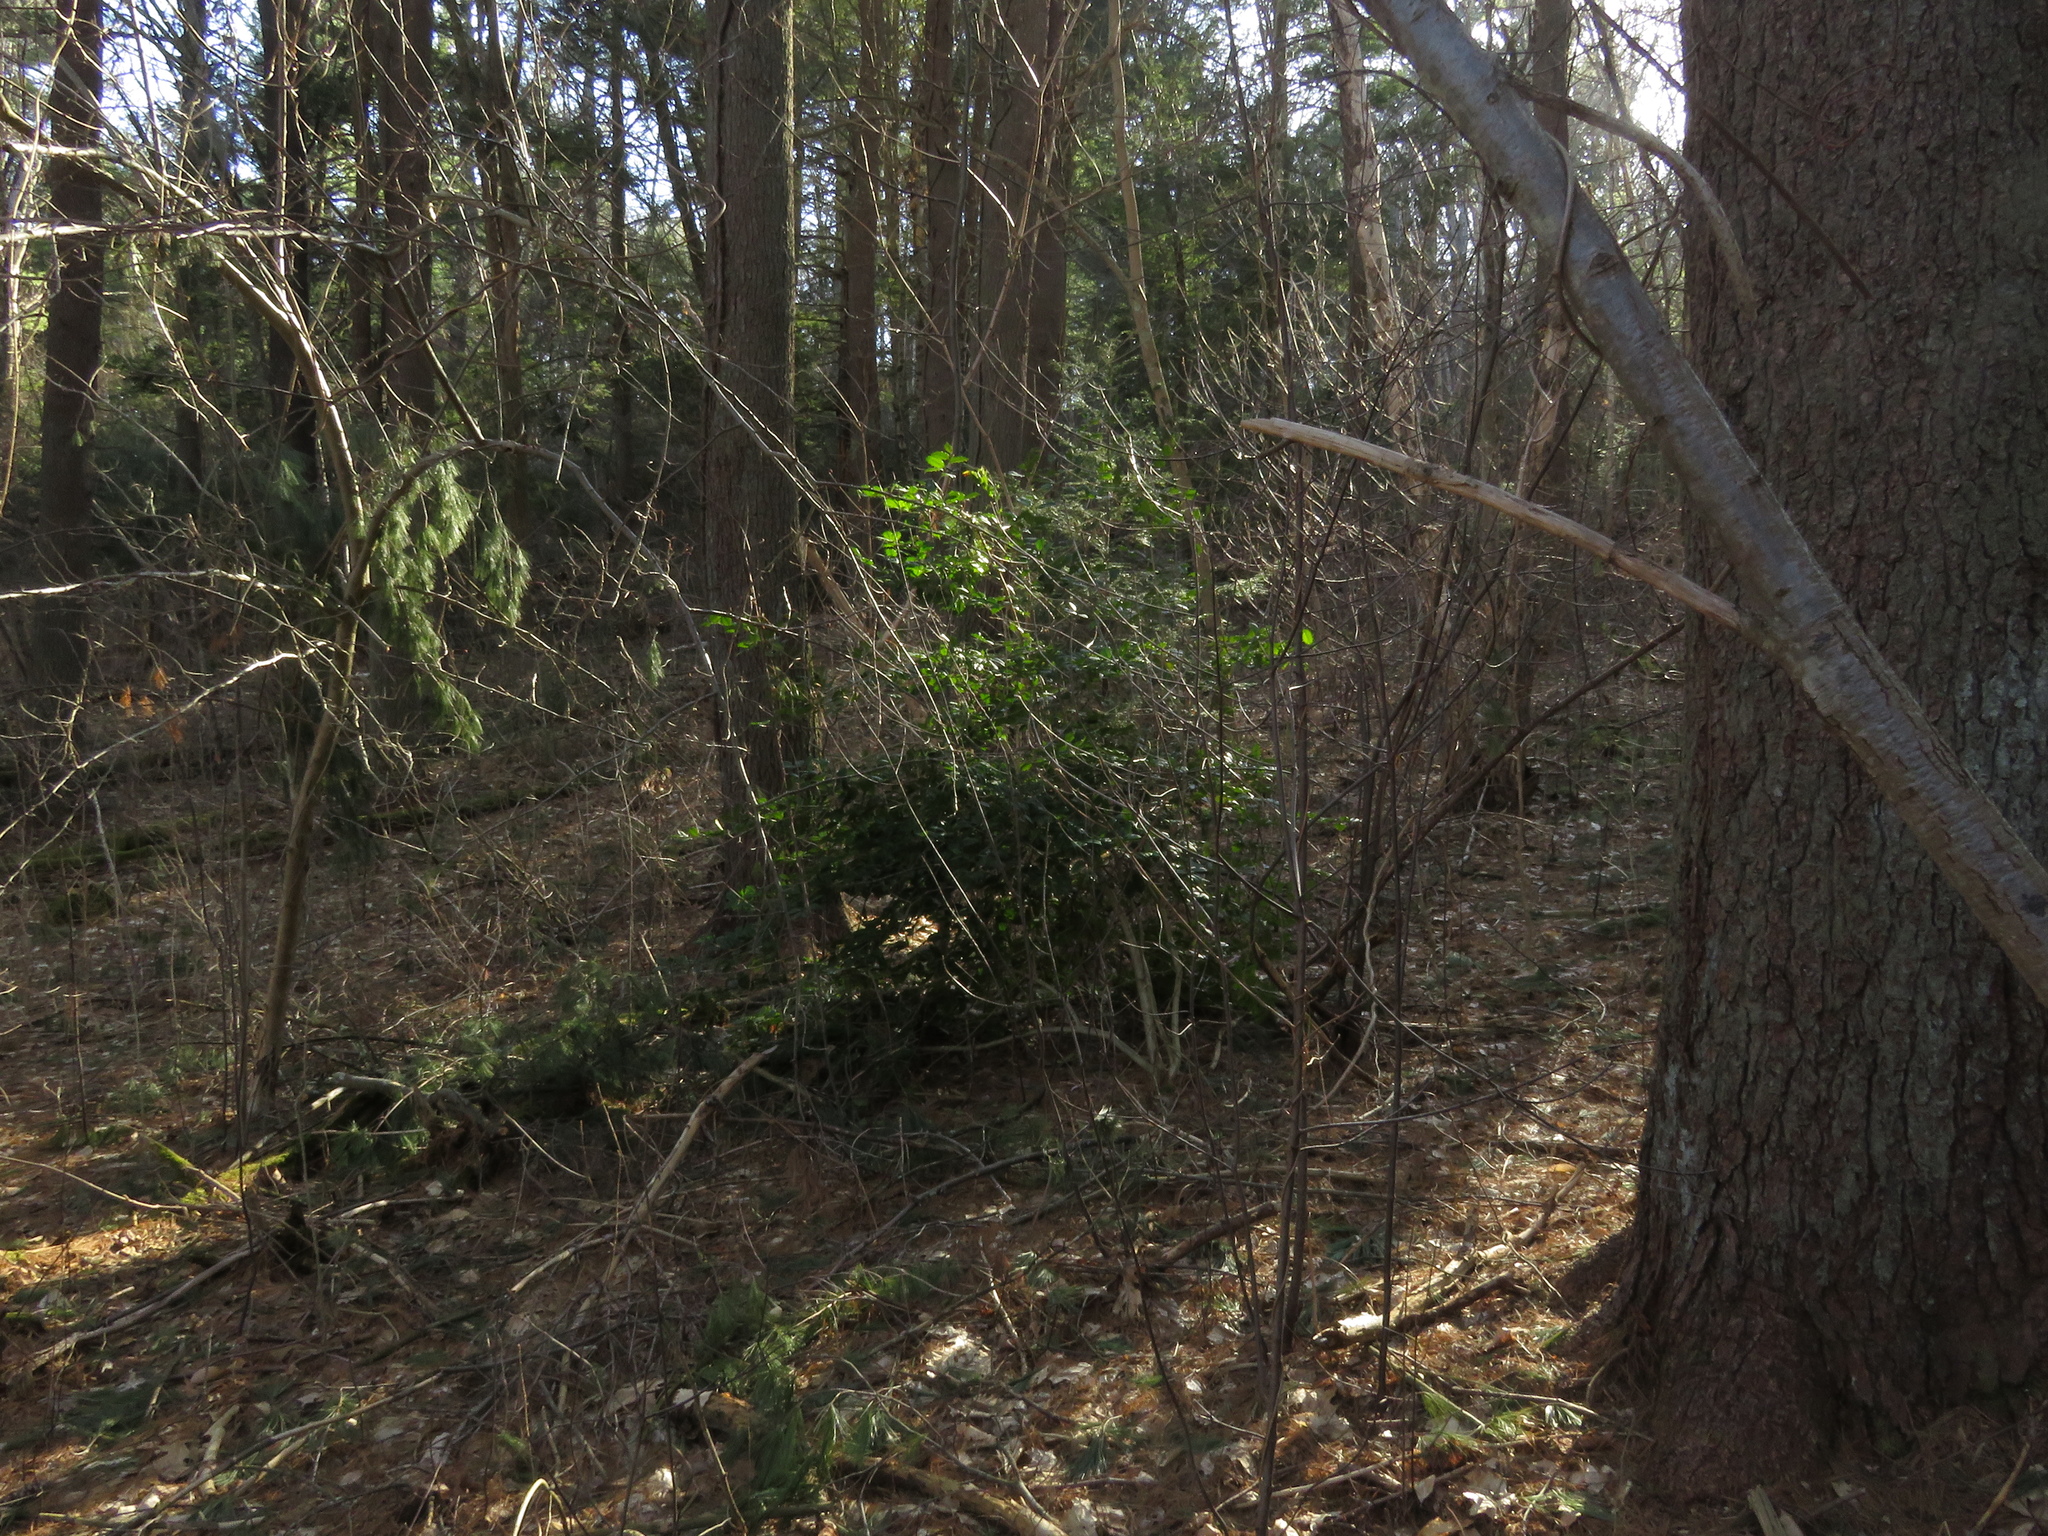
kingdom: Plantae
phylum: Tracheophyta
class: Magnoliopsida
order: Aquifoliales
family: Aquifoliaceae
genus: Ilex
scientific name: Ilex opaca
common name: American holly
